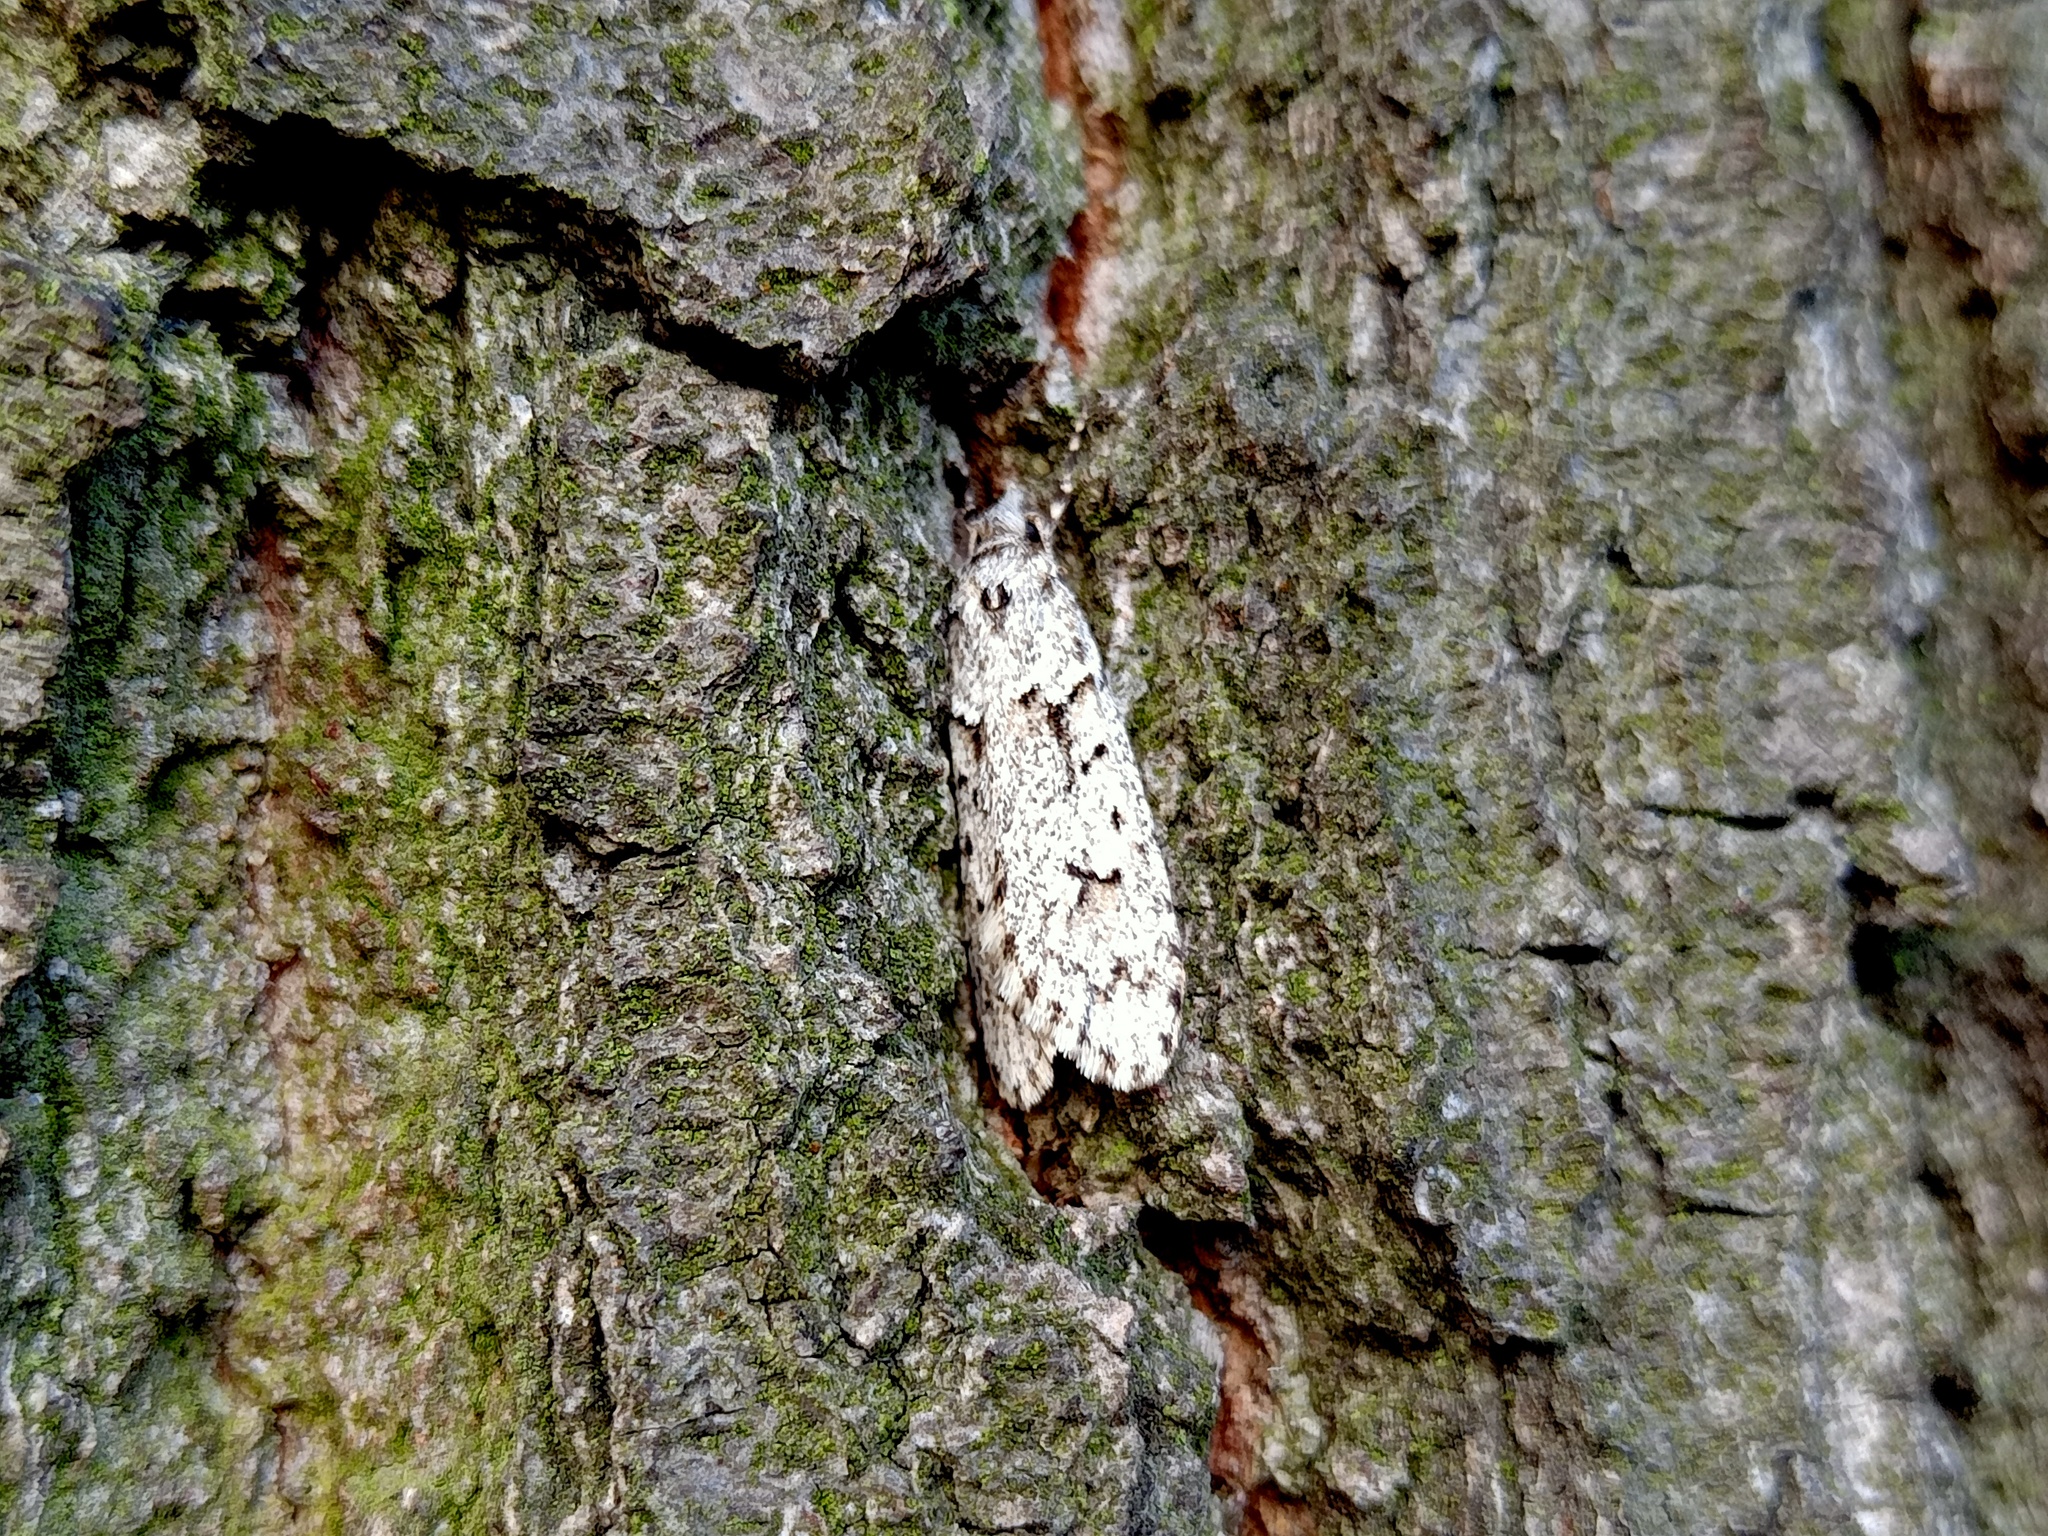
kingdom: Animalia
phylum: Arthropoda
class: Insecta
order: Lepidoptera
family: Lypusidae
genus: Diurnea
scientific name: Diurnea fagella
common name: March tubic
